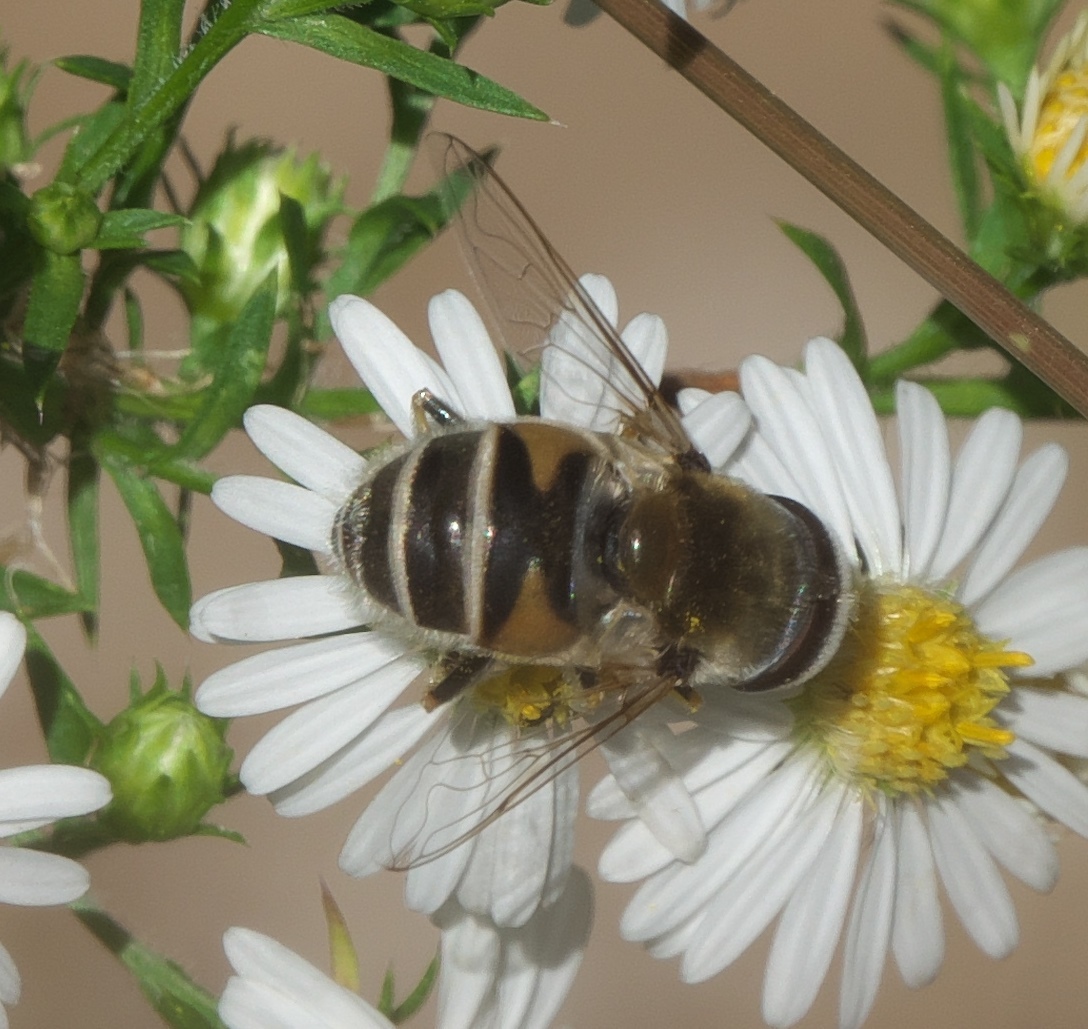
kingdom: Animalia
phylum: Arthropoda
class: Insecta
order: Diptera
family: Syrphidae
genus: Eristalis
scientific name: Eristalis stipator
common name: Yellow-shouldered drone fly
